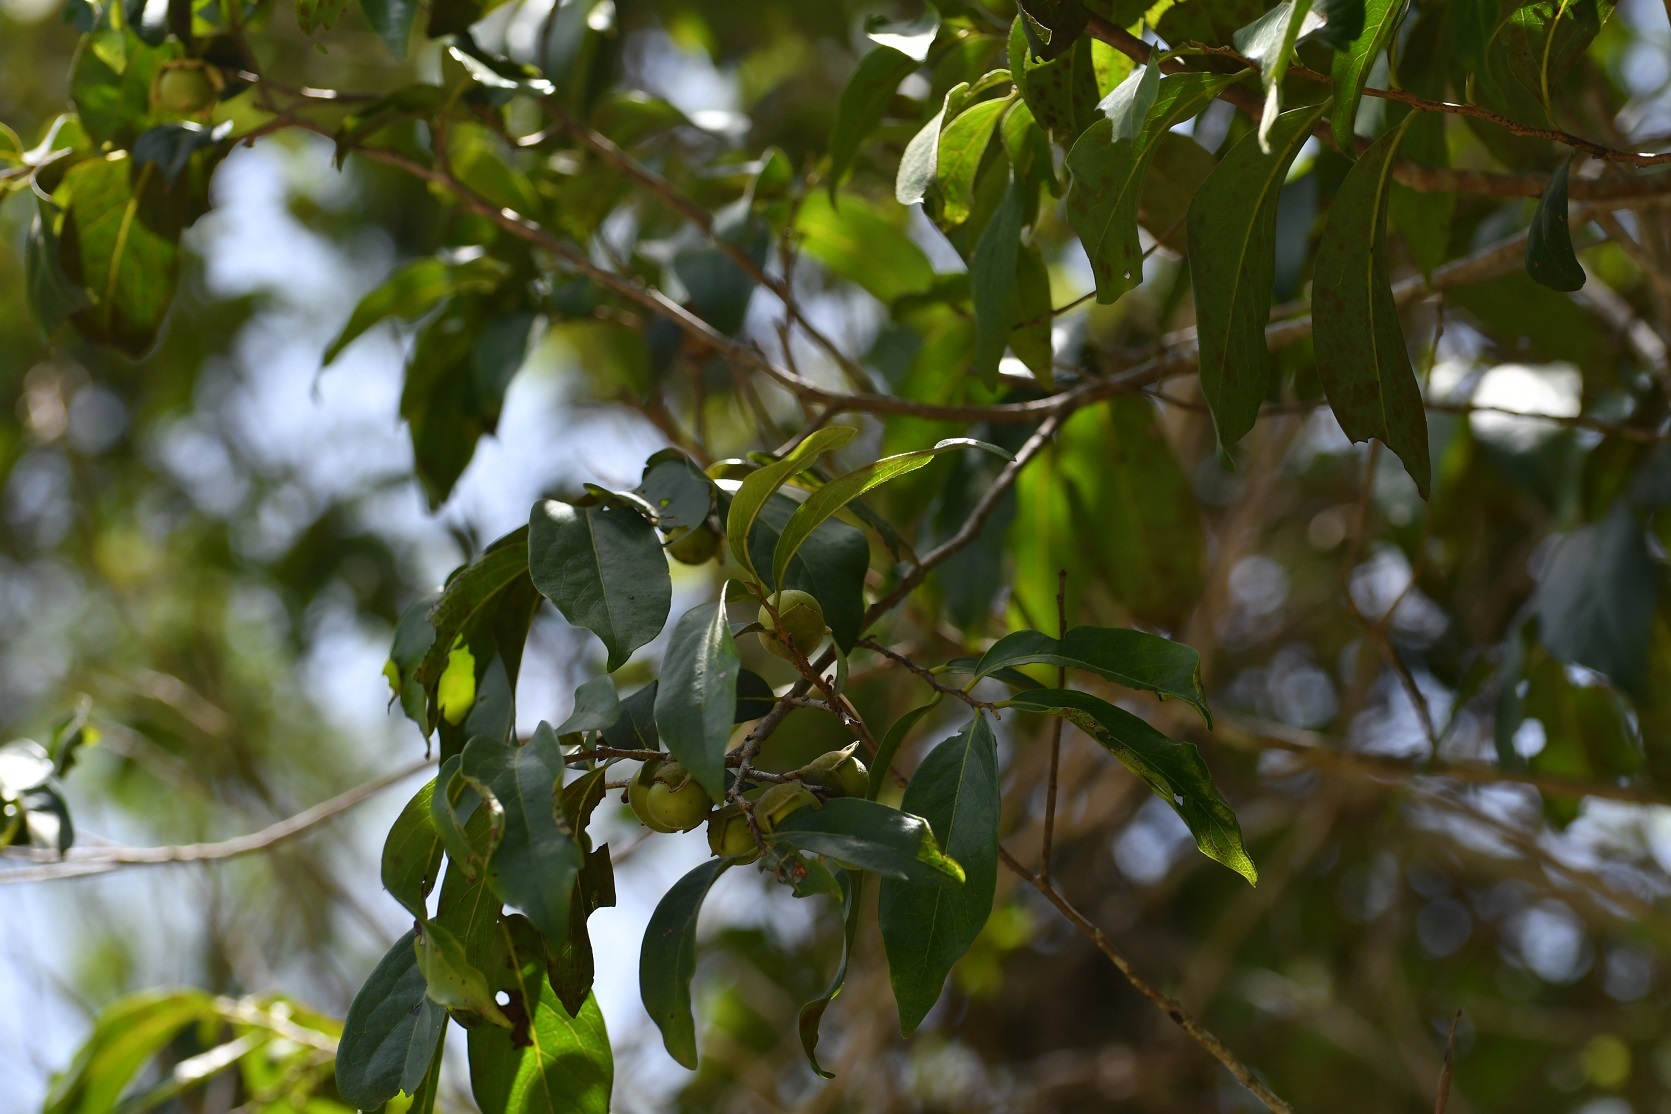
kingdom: Plantae
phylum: Tracheophyta
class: Magnoliopsida
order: Ericales
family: Ebenaceae
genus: Diospyros
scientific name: Diospyros salicifolia
